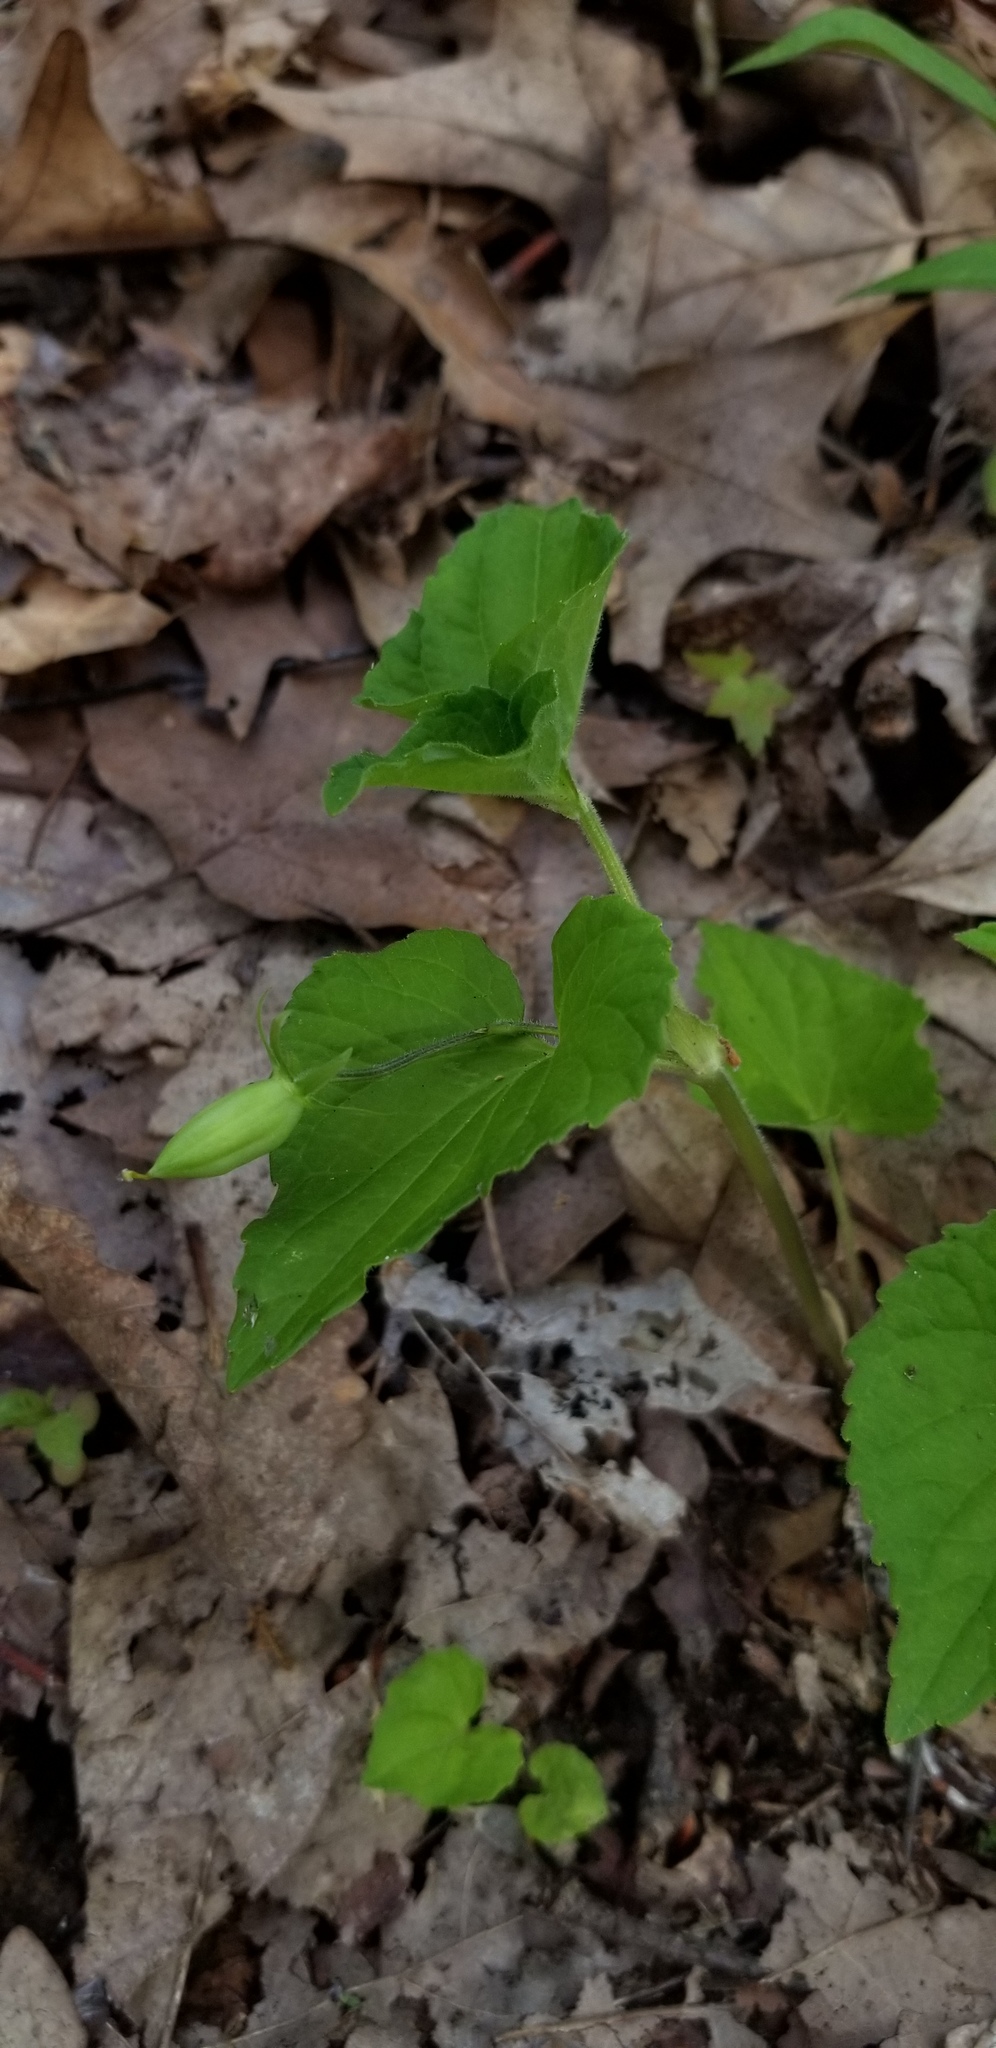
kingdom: Plantae
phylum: Tracheophyta
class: Magnoliopsida
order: Malpighiales
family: Violaceae
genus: Viola
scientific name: Viola eriocarpa
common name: Smooth yellow violet
